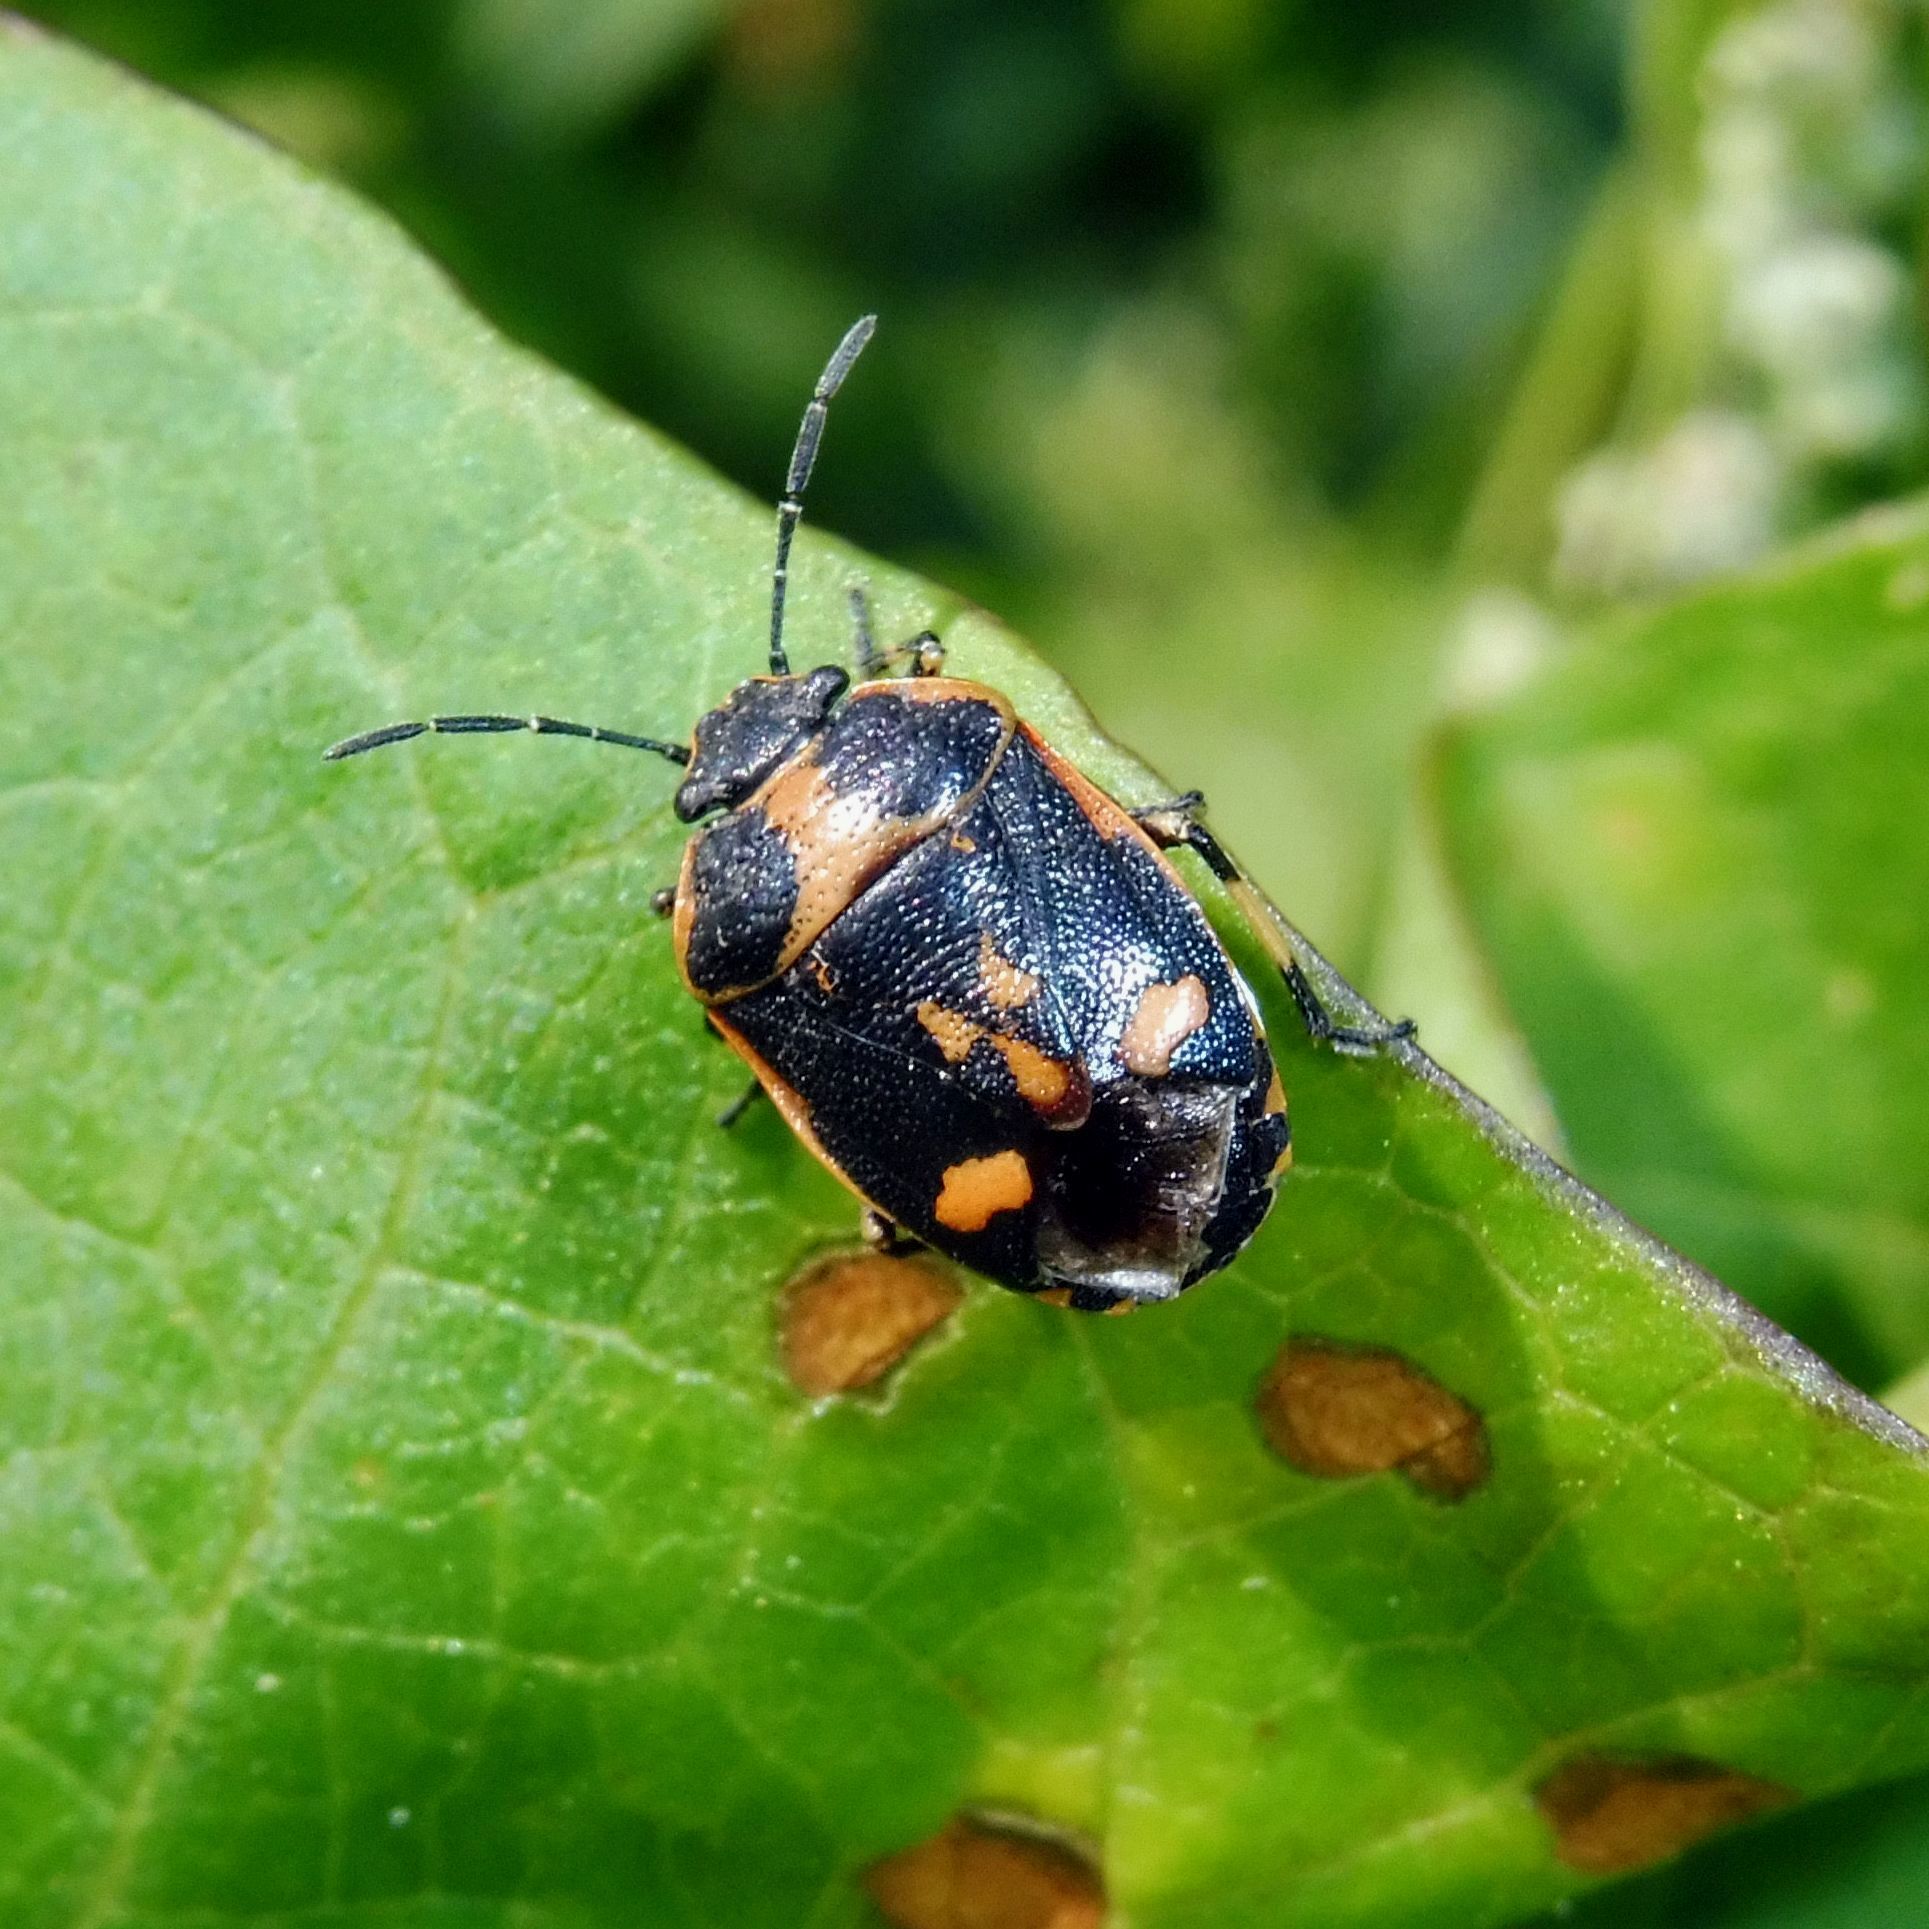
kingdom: Animalia
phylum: Arthropoda
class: Insecta
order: Hemiptera
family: Pentatomidae
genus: Eurydema
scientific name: Eurydema oleracea
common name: Cabbage bug
